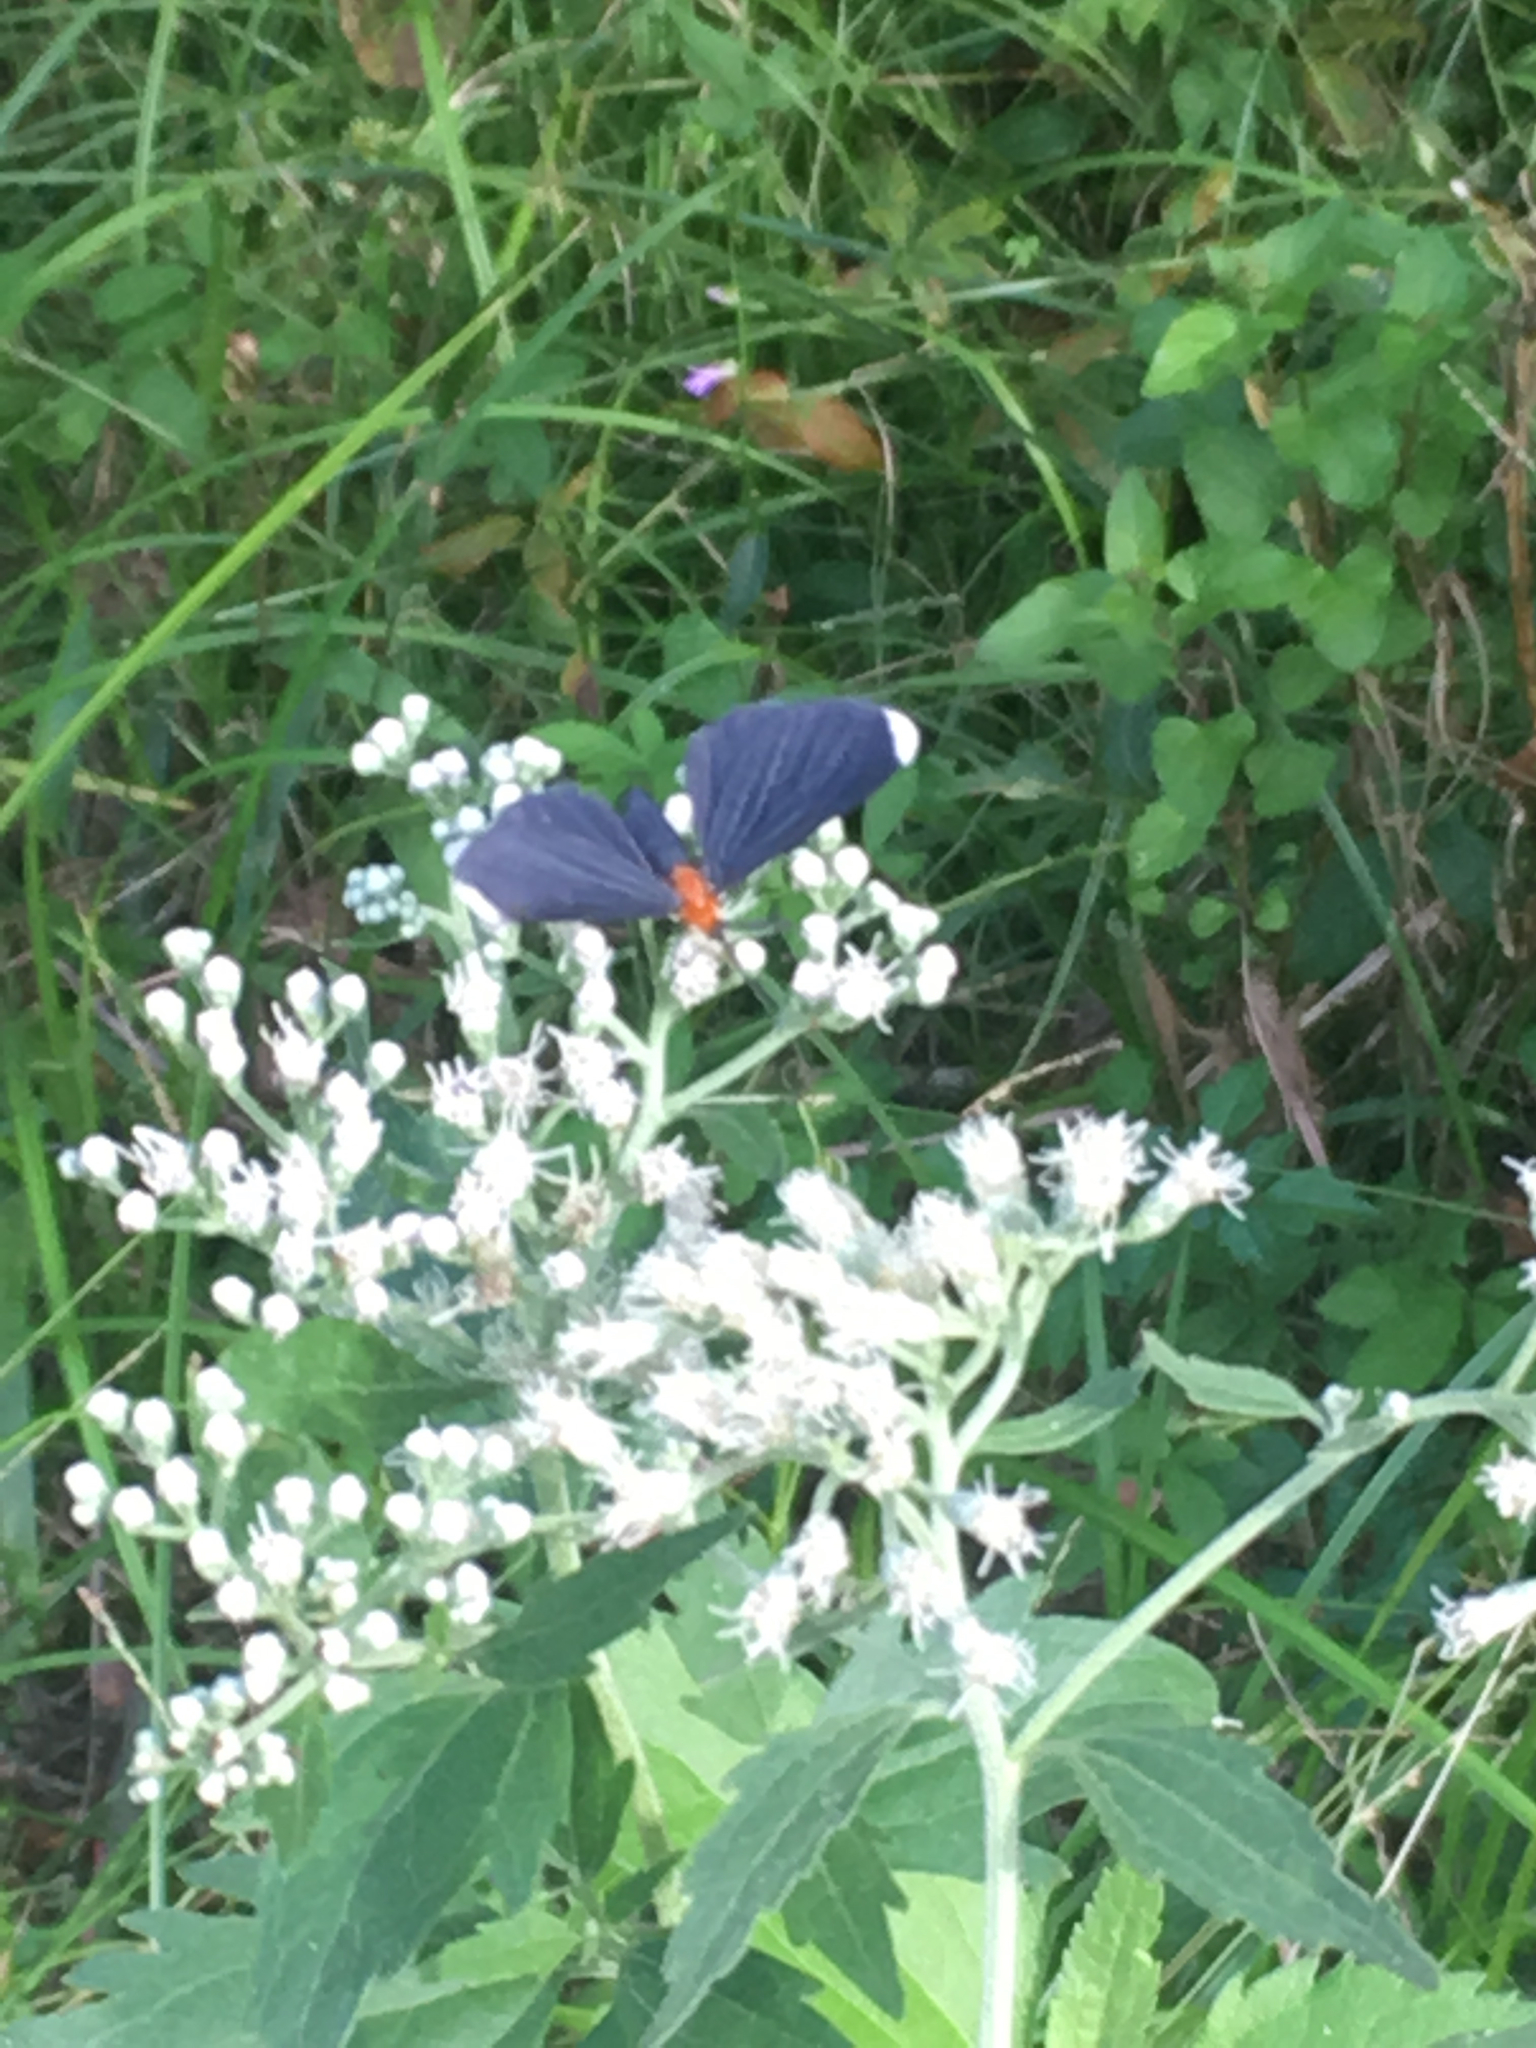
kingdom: Animalia
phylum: Arthropoda
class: Insecta
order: Lepidoptera
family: Geometridae
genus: Melanchroia
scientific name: Melanchroia chephise
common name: White-tipped black
